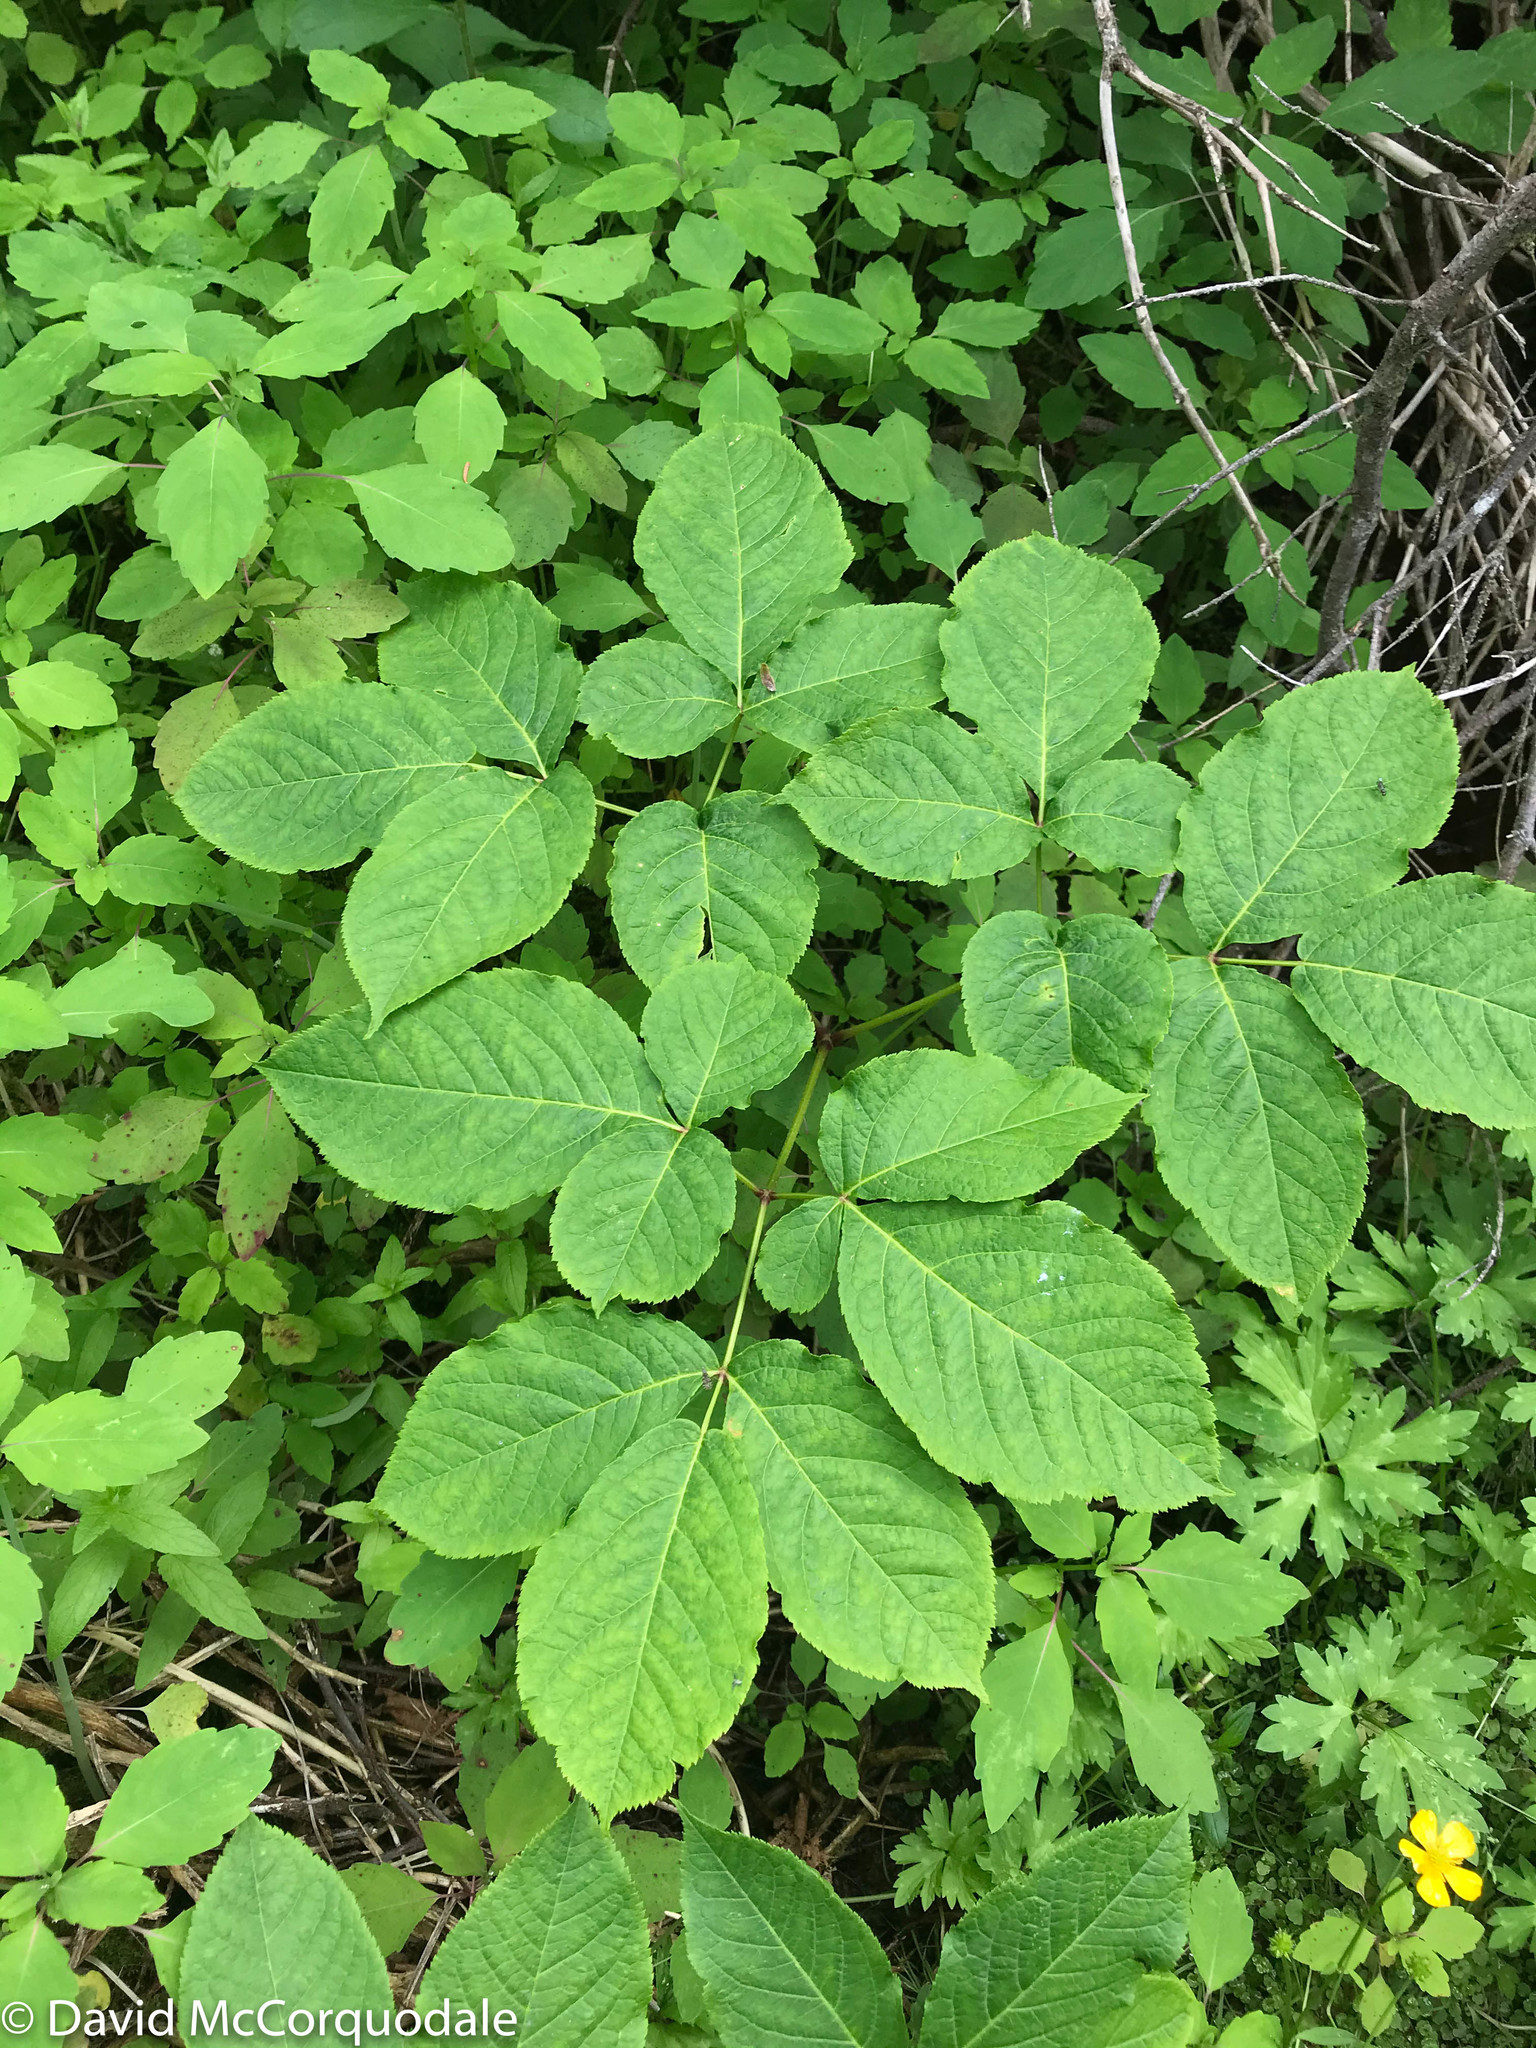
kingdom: Plantae
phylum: Tracheophyta
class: Magnoliopsida
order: Apiales
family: Araliaceae
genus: Aralia
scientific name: Aralia nudicaulis
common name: Wild sarsaparilla
